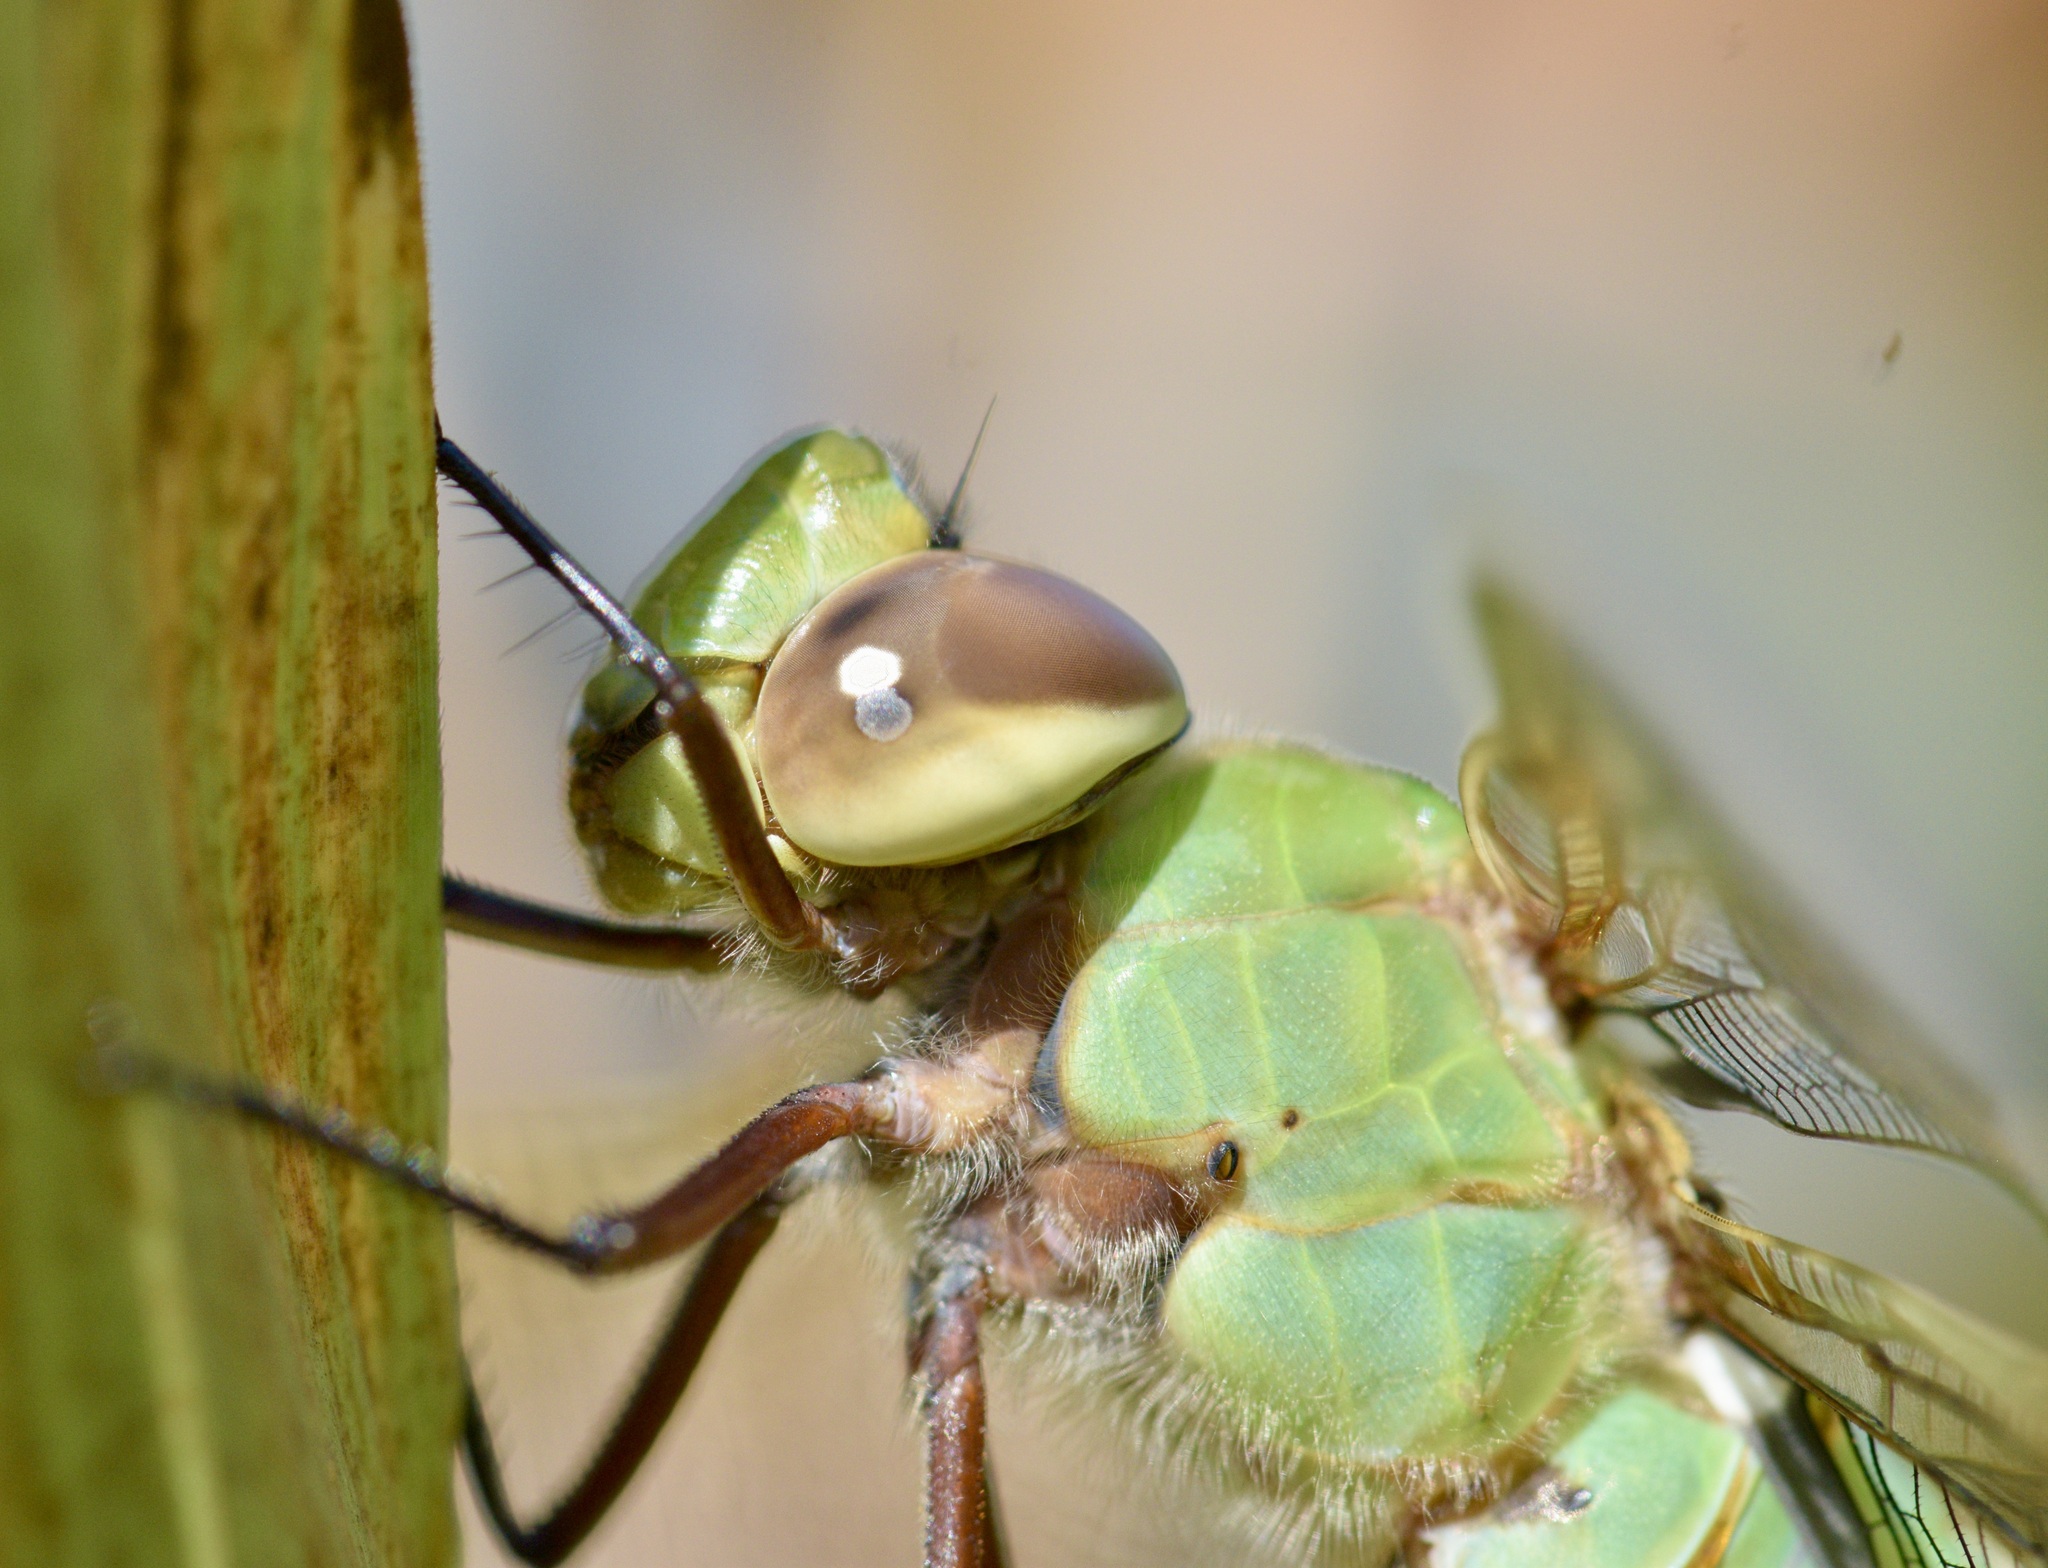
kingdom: Animalia
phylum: Arthropoda
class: Insecta
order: Odonata
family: Aeshnidae
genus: Anax
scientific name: Anax junius
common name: Common green darner
